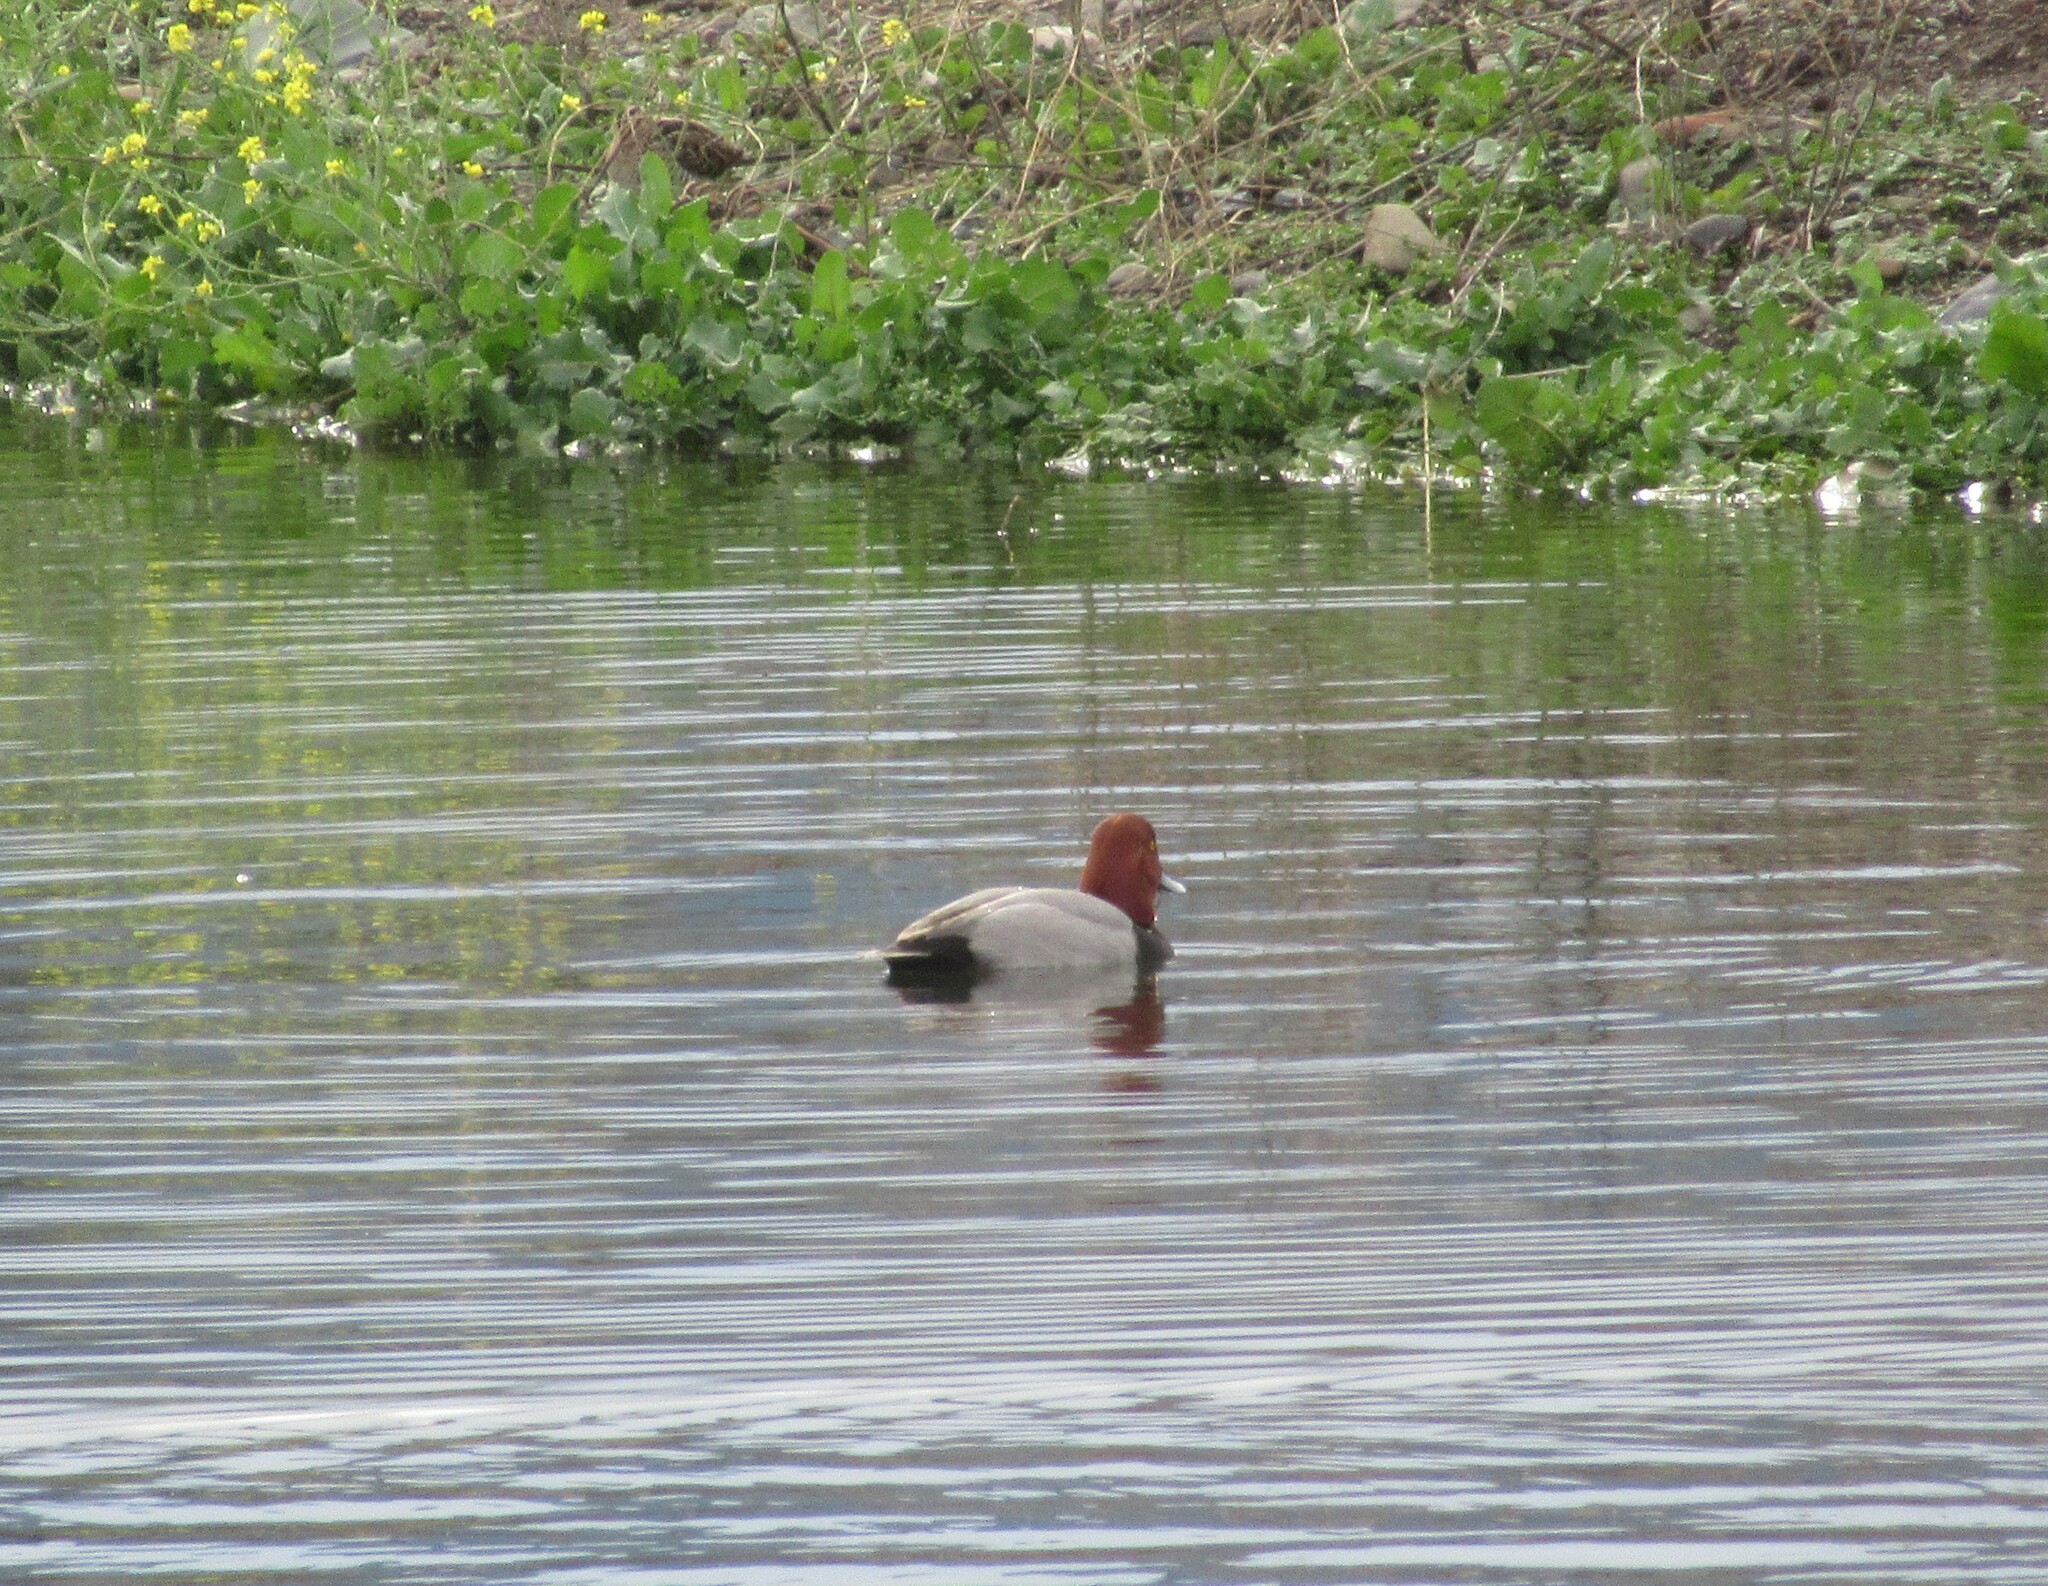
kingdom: Animalia
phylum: Chordata
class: Aves
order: Anseriformes
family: Anatidae
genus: Aythya
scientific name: Aythya americana
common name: Redhead
